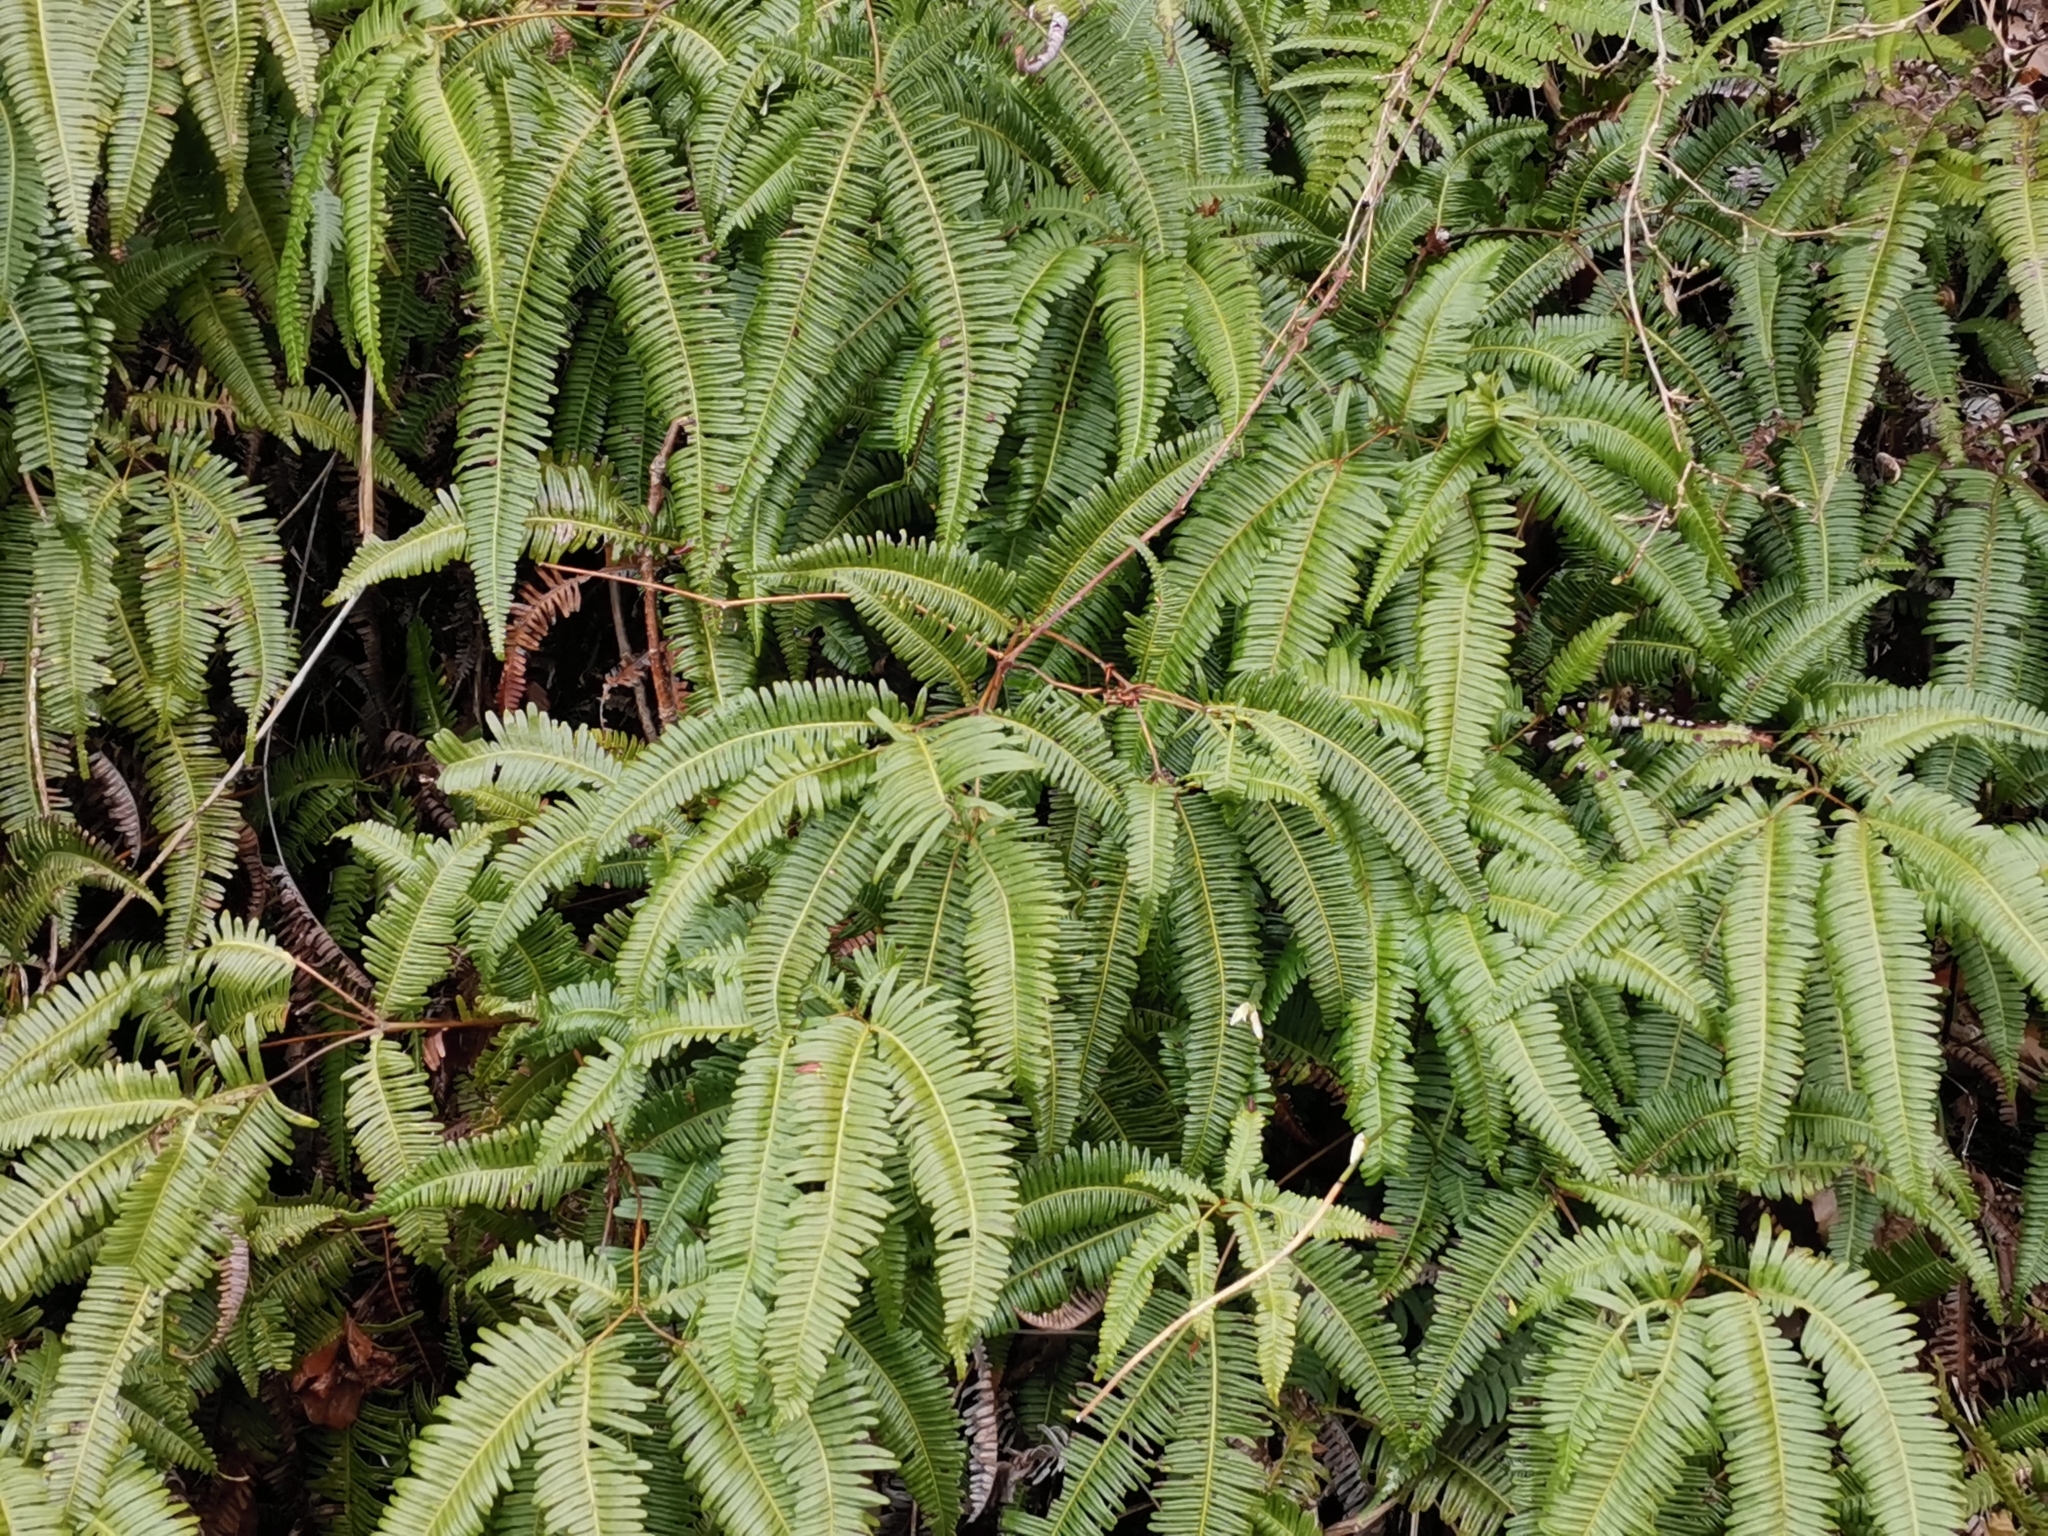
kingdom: Plantae
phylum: Tracheophyta
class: Polypodiopsida
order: Gleicheniales
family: Gleicheniaceae
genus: Dicranopteris
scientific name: Dicranopteris linearis
